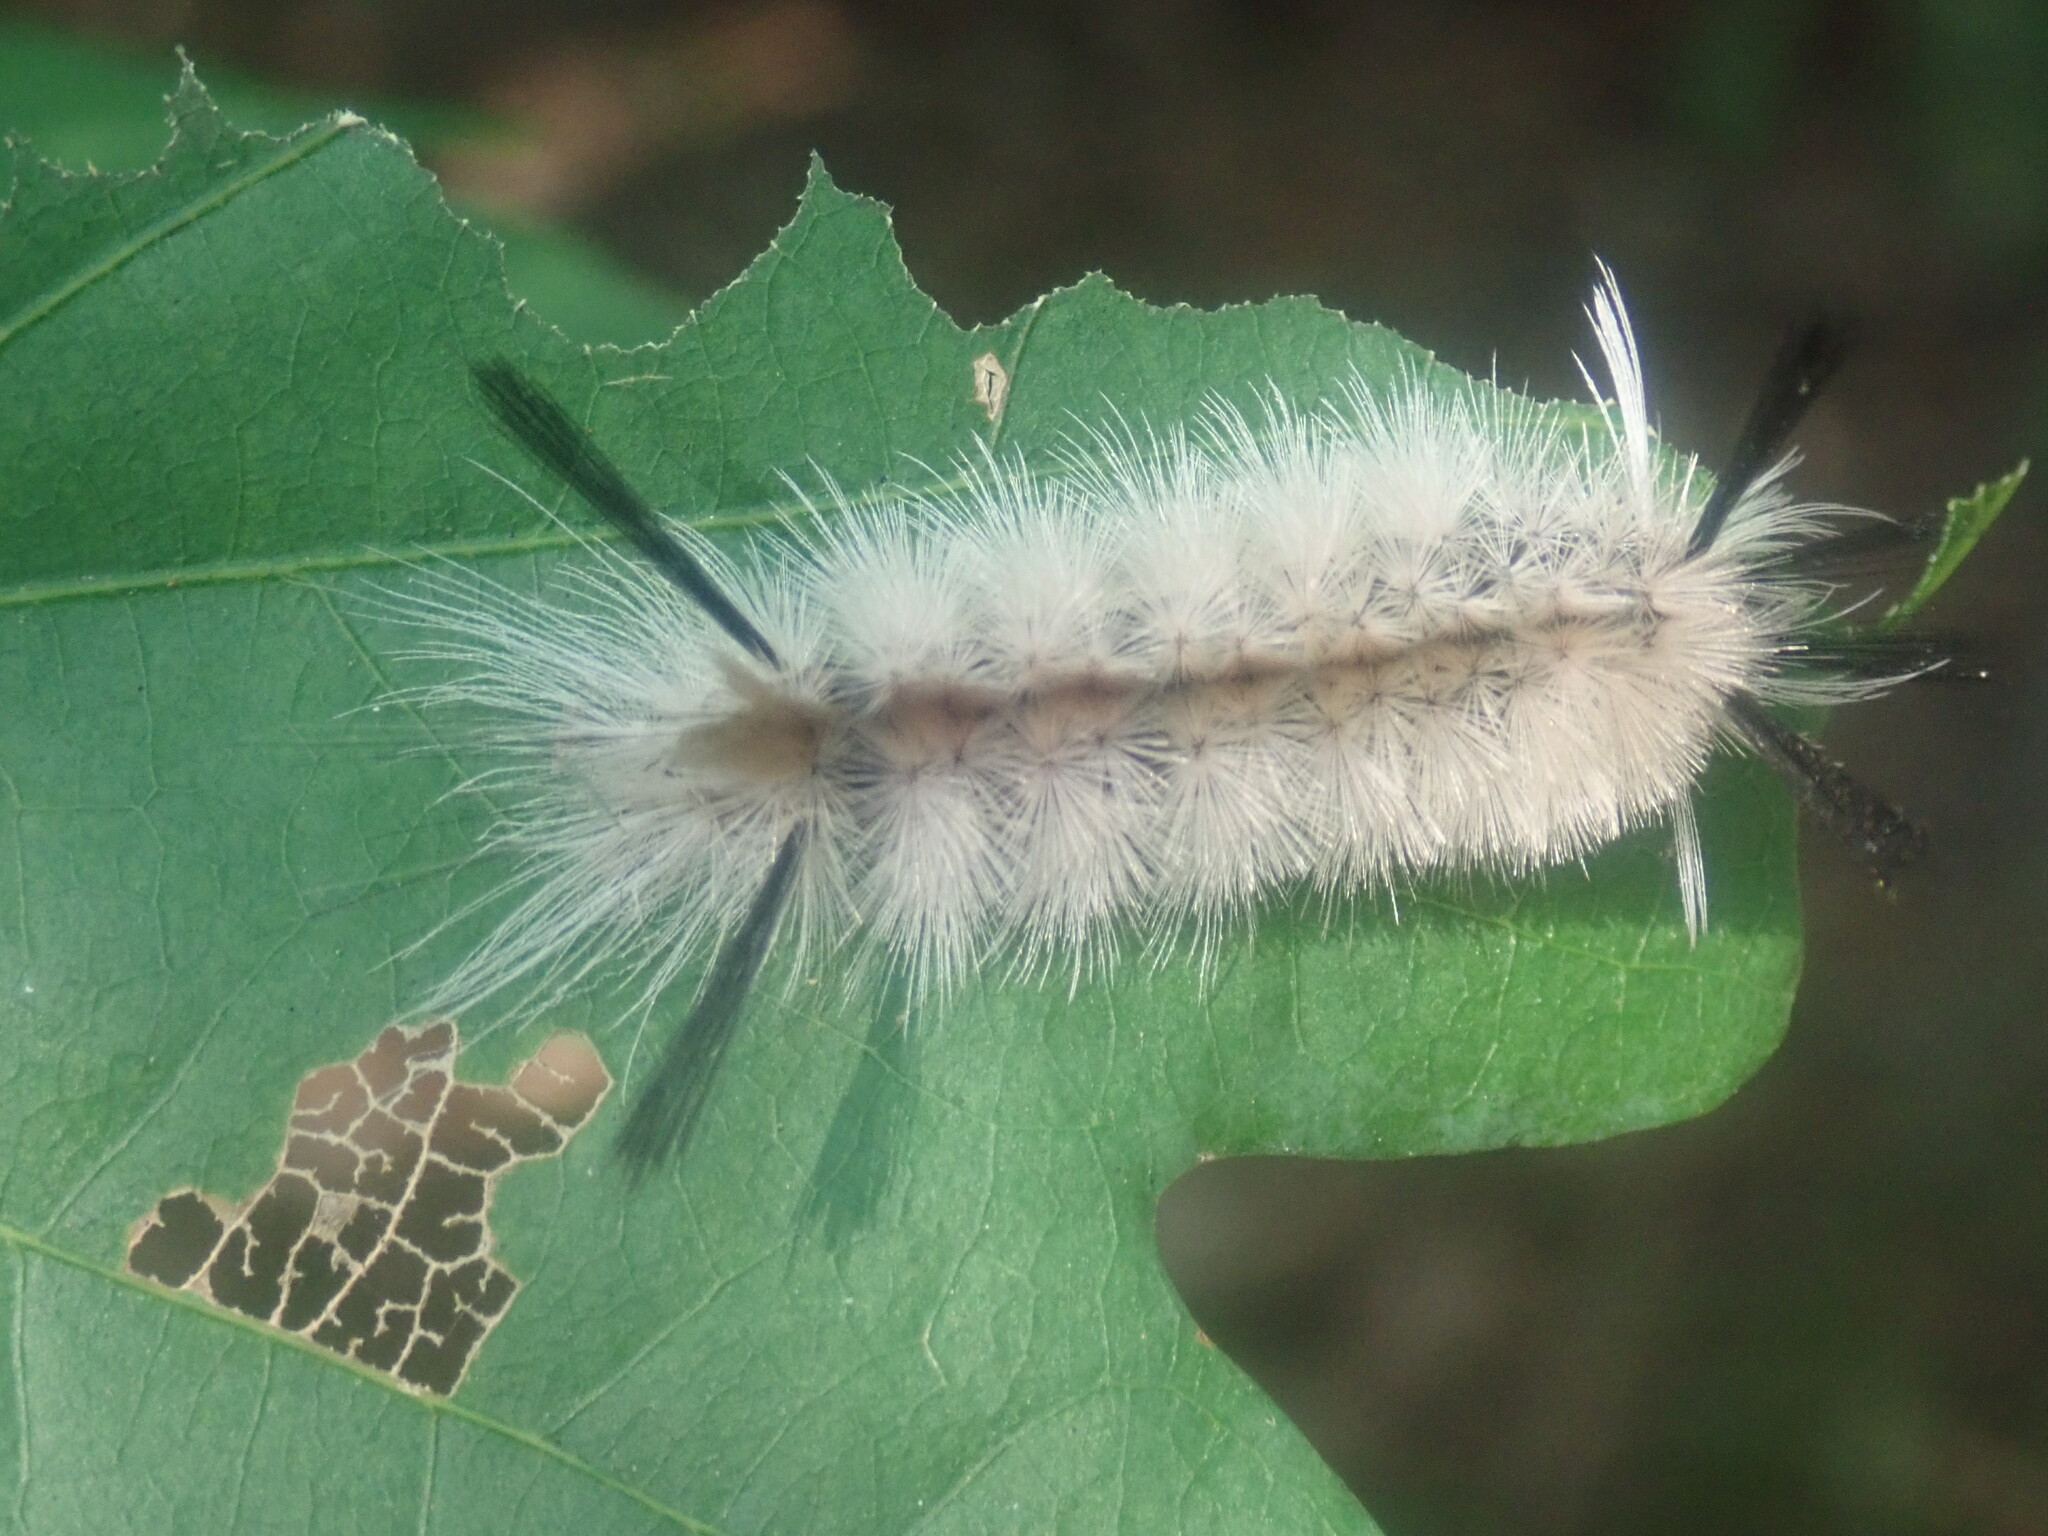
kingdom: Animalia
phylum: Arthropoda
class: Insecta
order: Lepidoptera
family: Erebidae
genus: Halysidota
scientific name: Halysidota tessellaris
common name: Banded tussock moth
